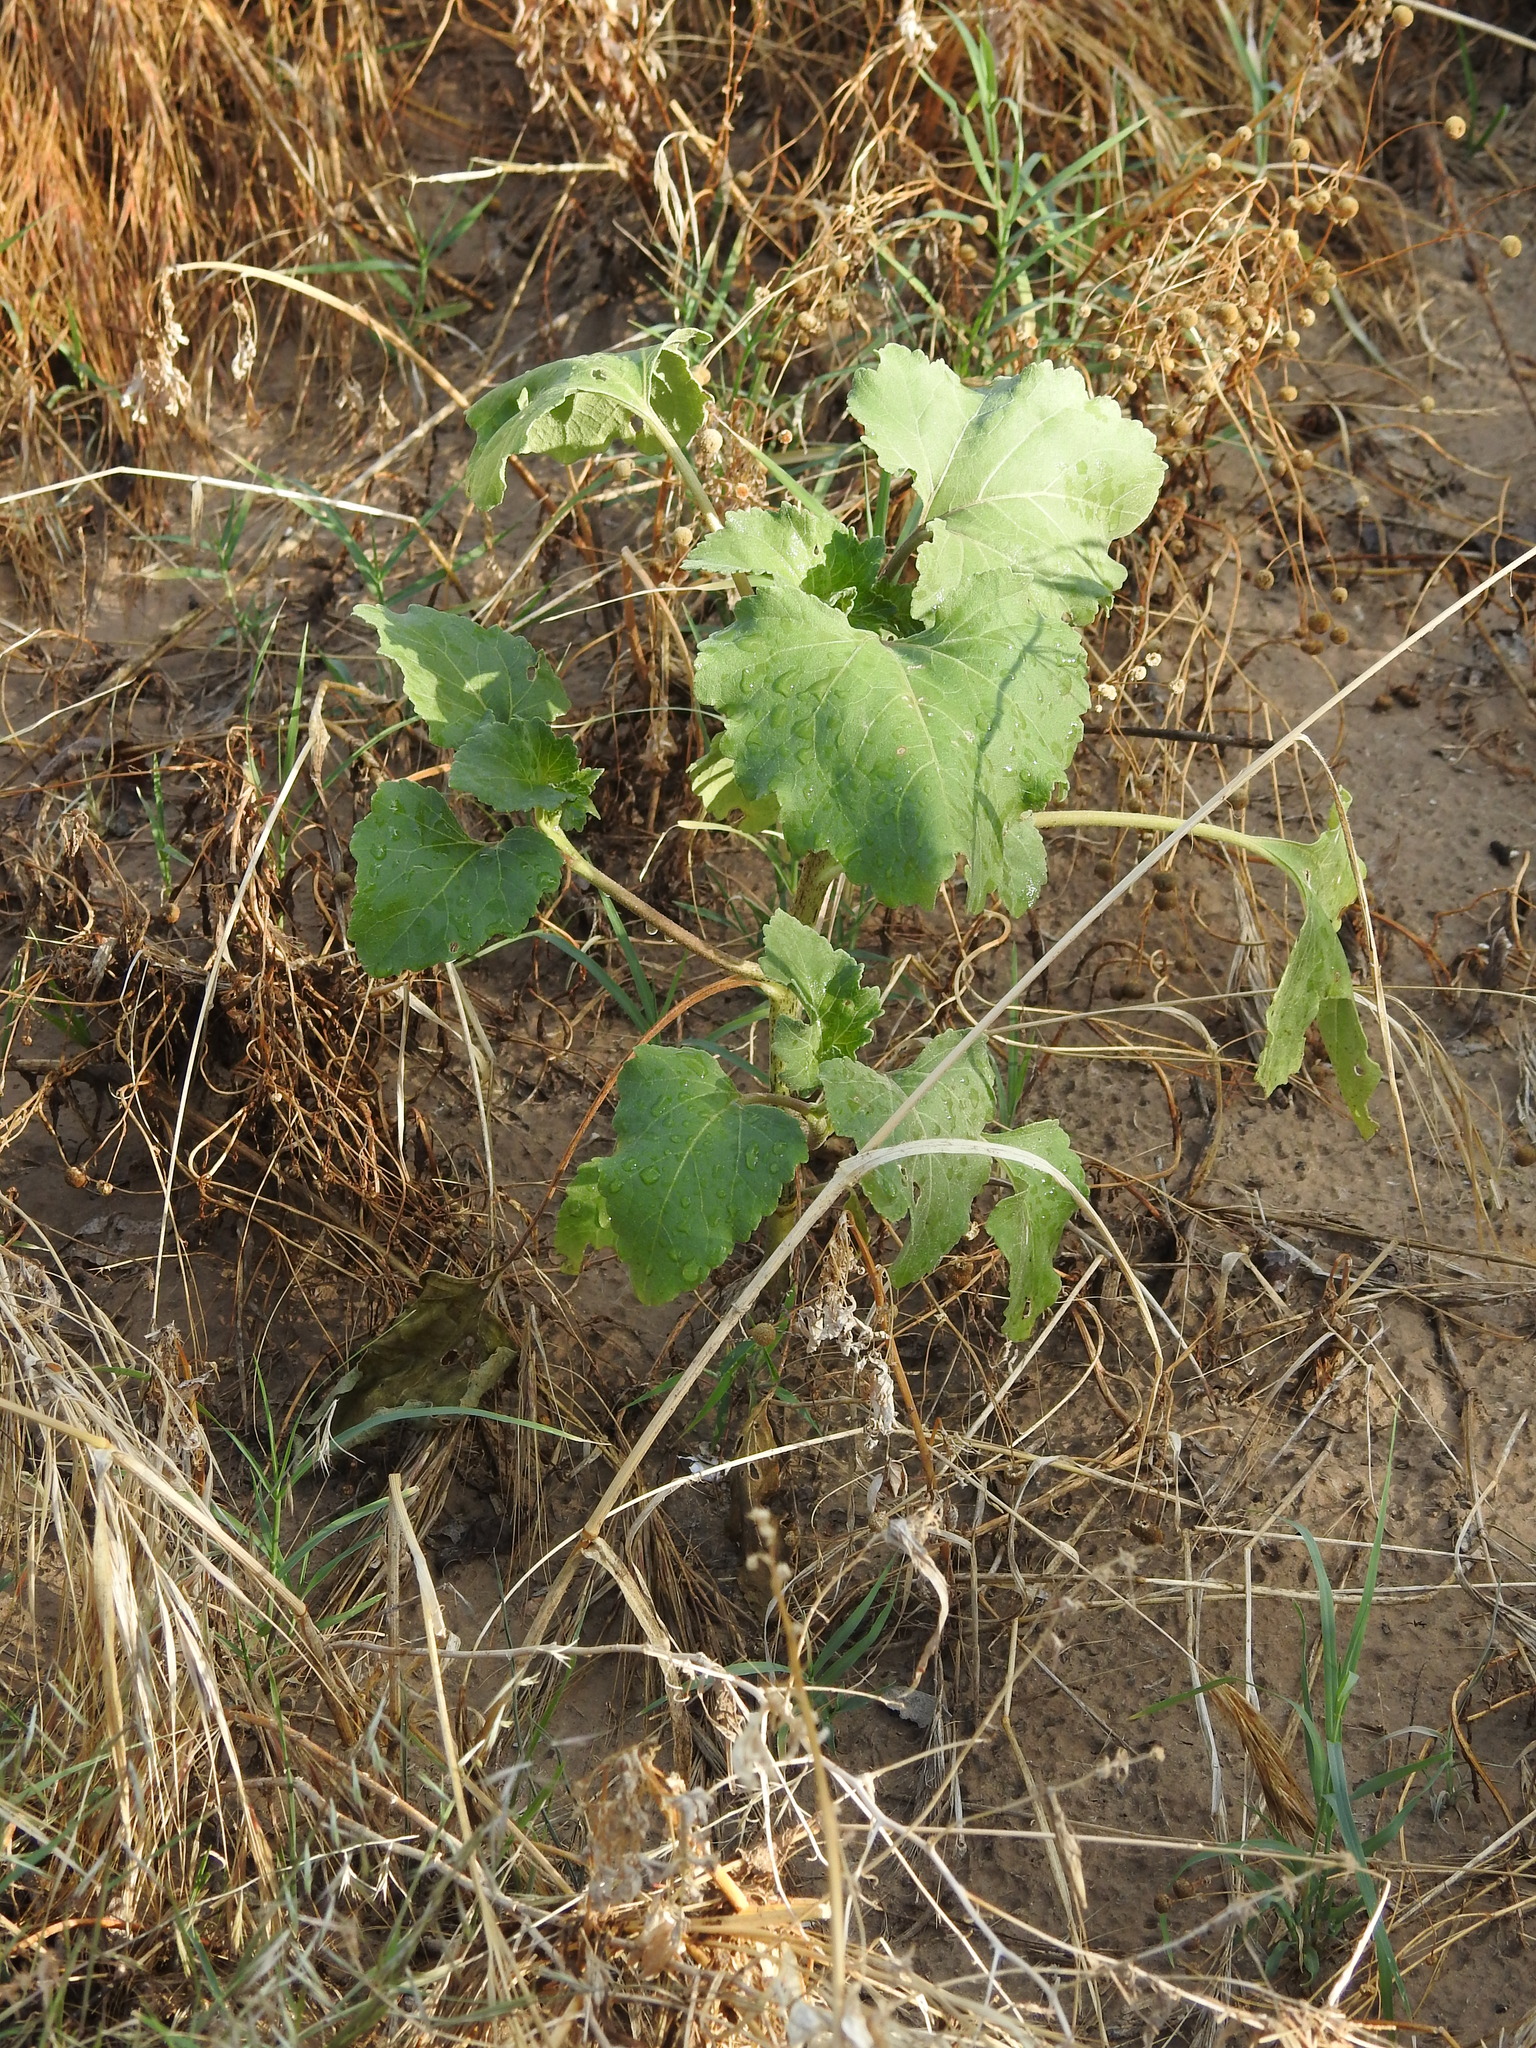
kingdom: Plantae
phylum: Tracheophyta
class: Magnoliopsida
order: Asterales
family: Asteraceae
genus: Xanthium
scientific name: Xanthium strumarium
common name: Rough cocklebur
